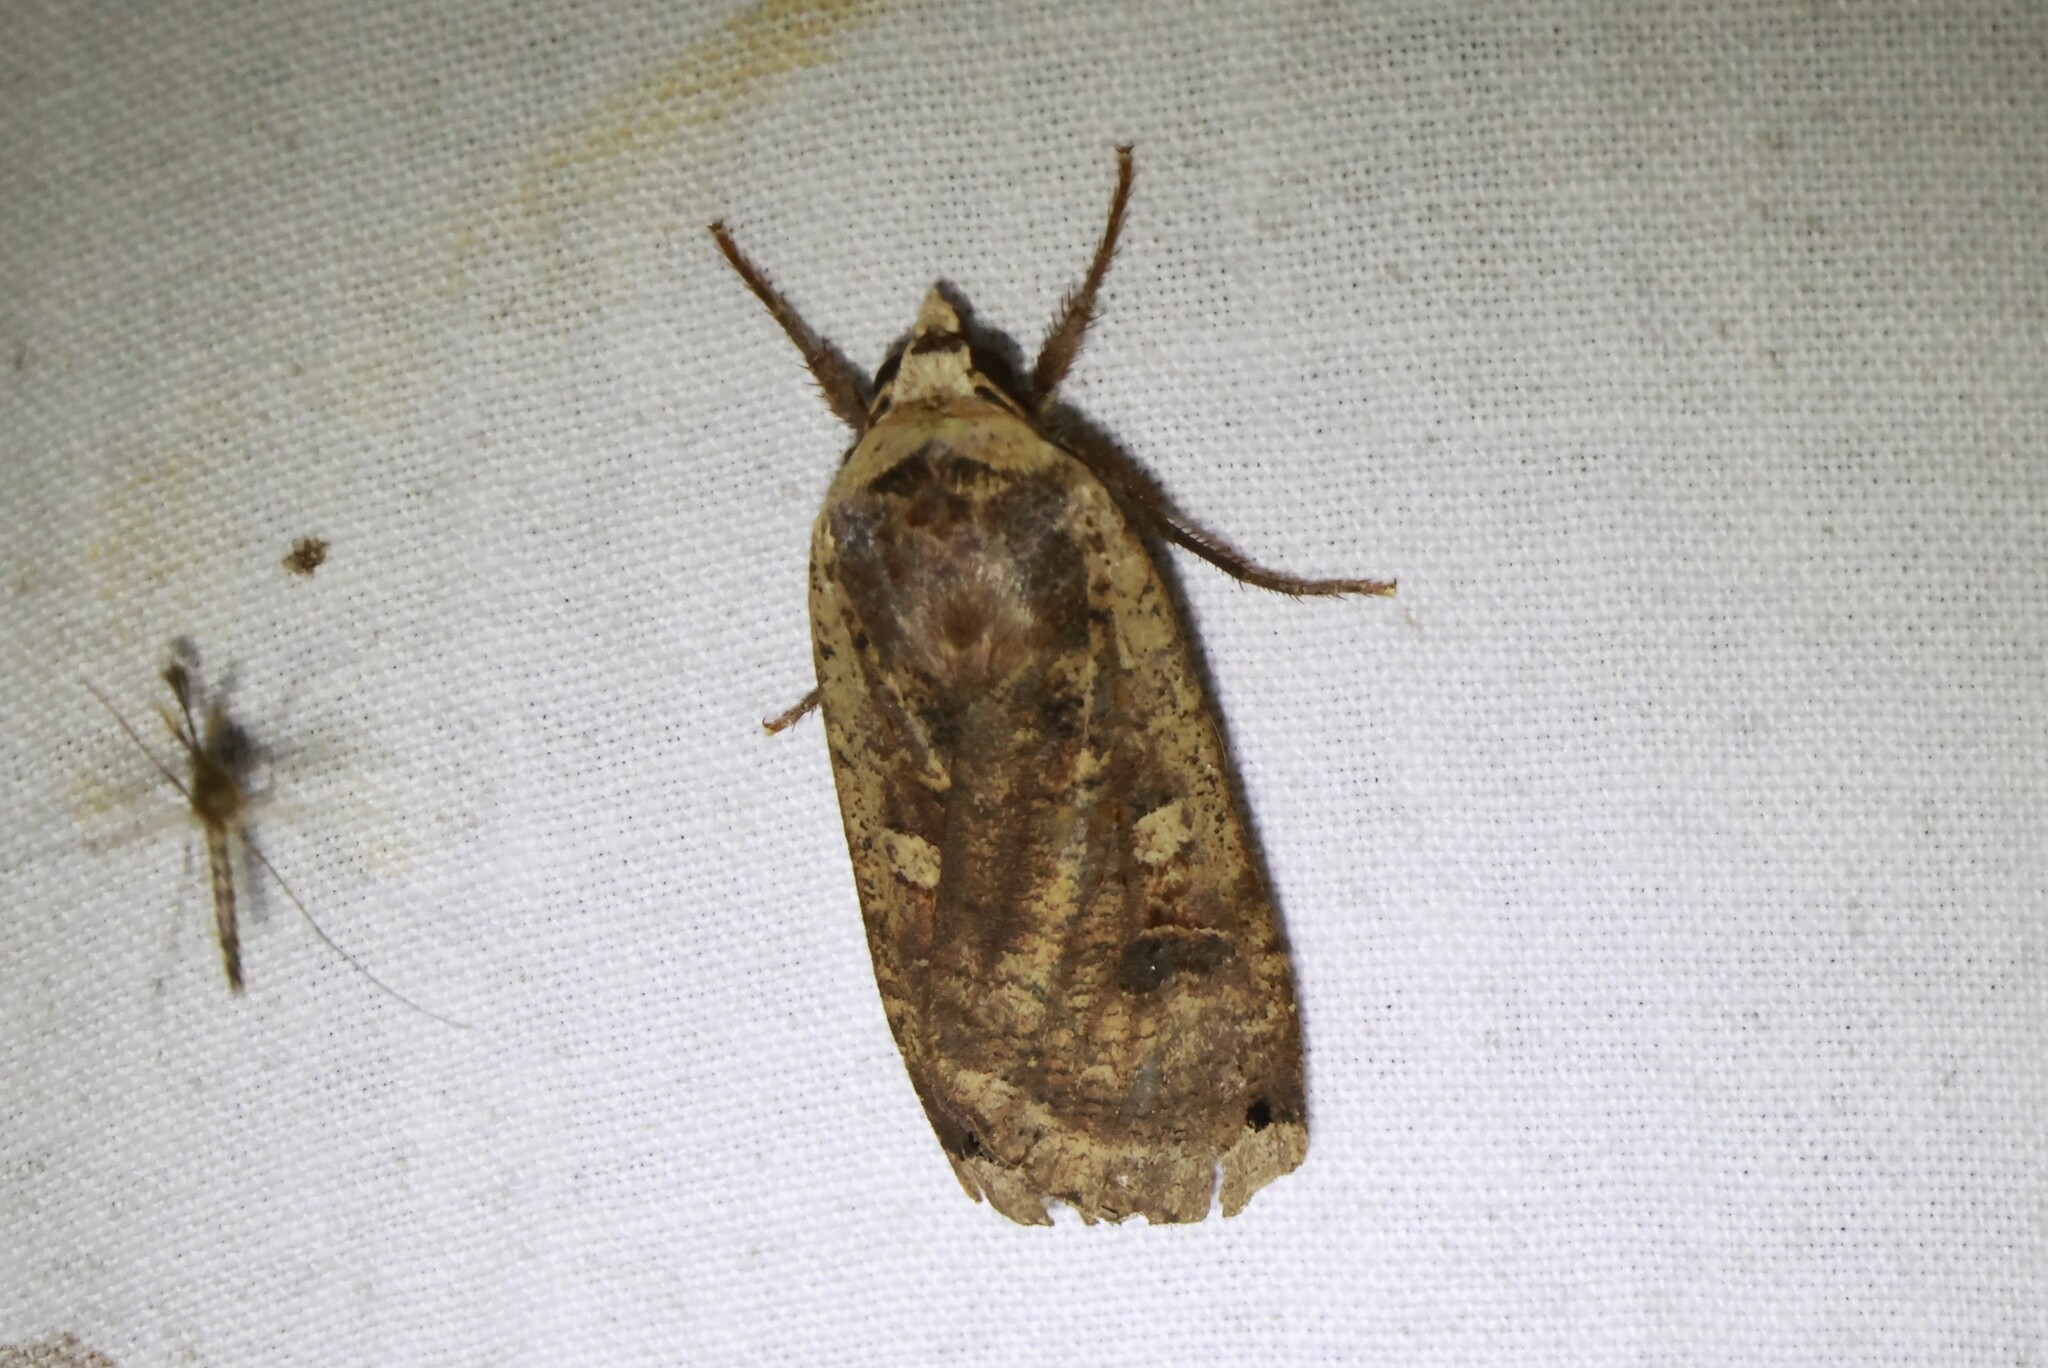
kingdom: Animalia
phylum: Arthropoda
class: Insecta
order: Lepidoptera
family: Noctuidae
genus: Noctua
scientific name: Noctua pronuba
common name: Large yellow underwing
